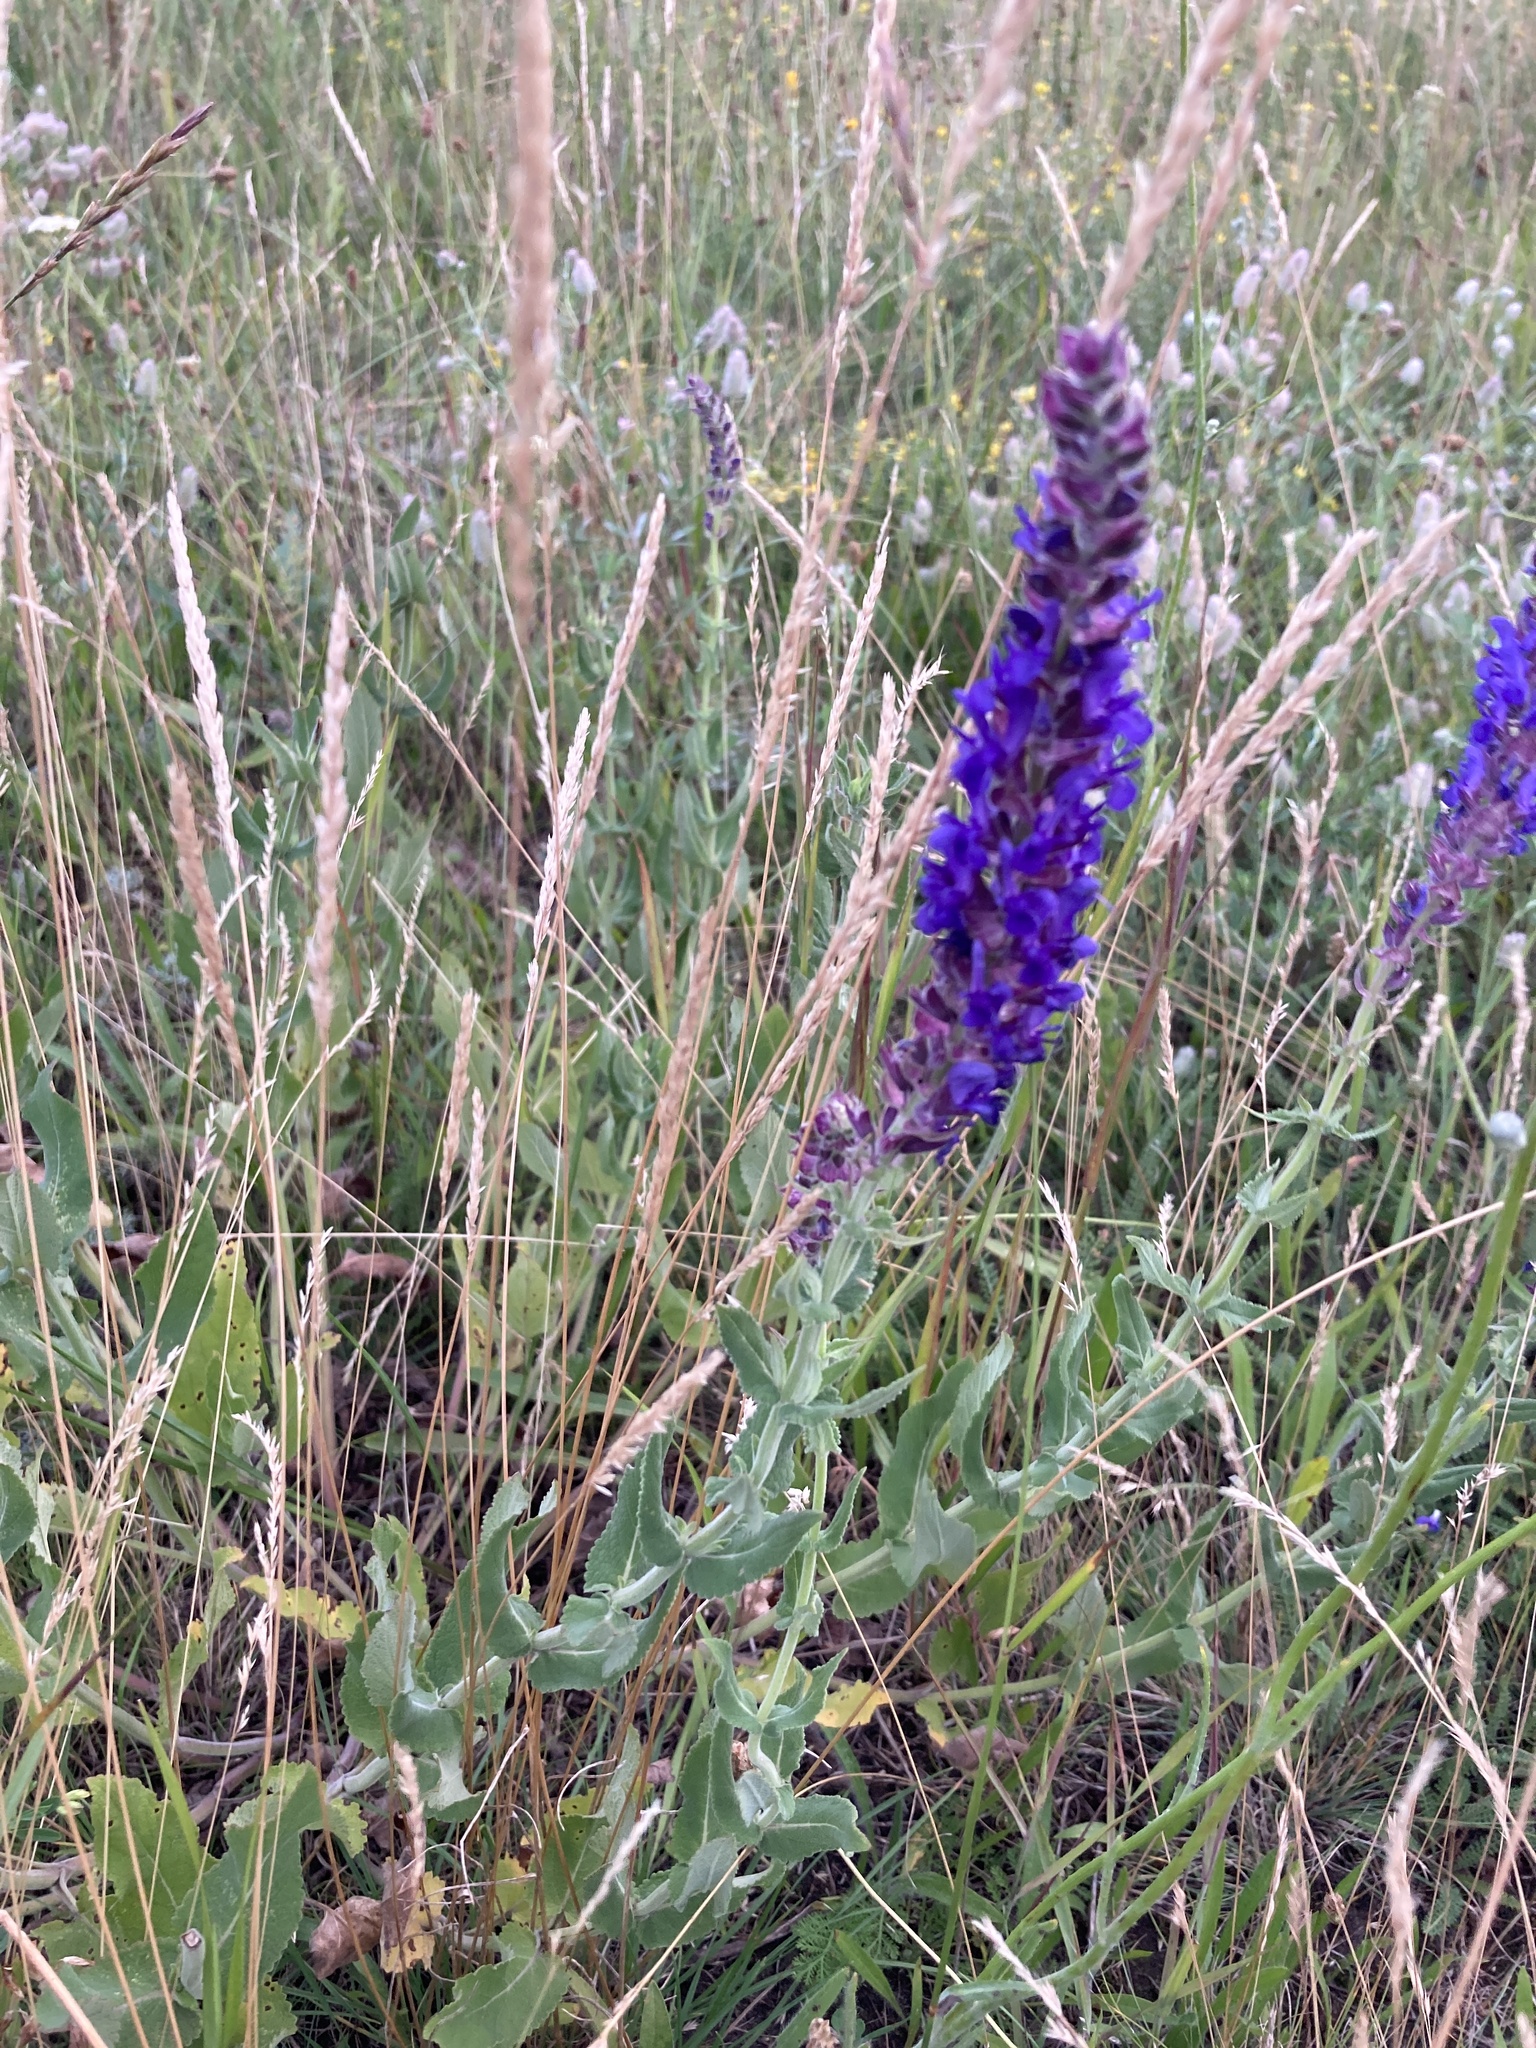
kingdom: Plantae
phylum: Tracheophyta
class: Magnoliopsida
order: Lamiales
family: Lamiaceae
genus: Salvia
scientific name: Salvia nemorosa
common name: Balkan clary
